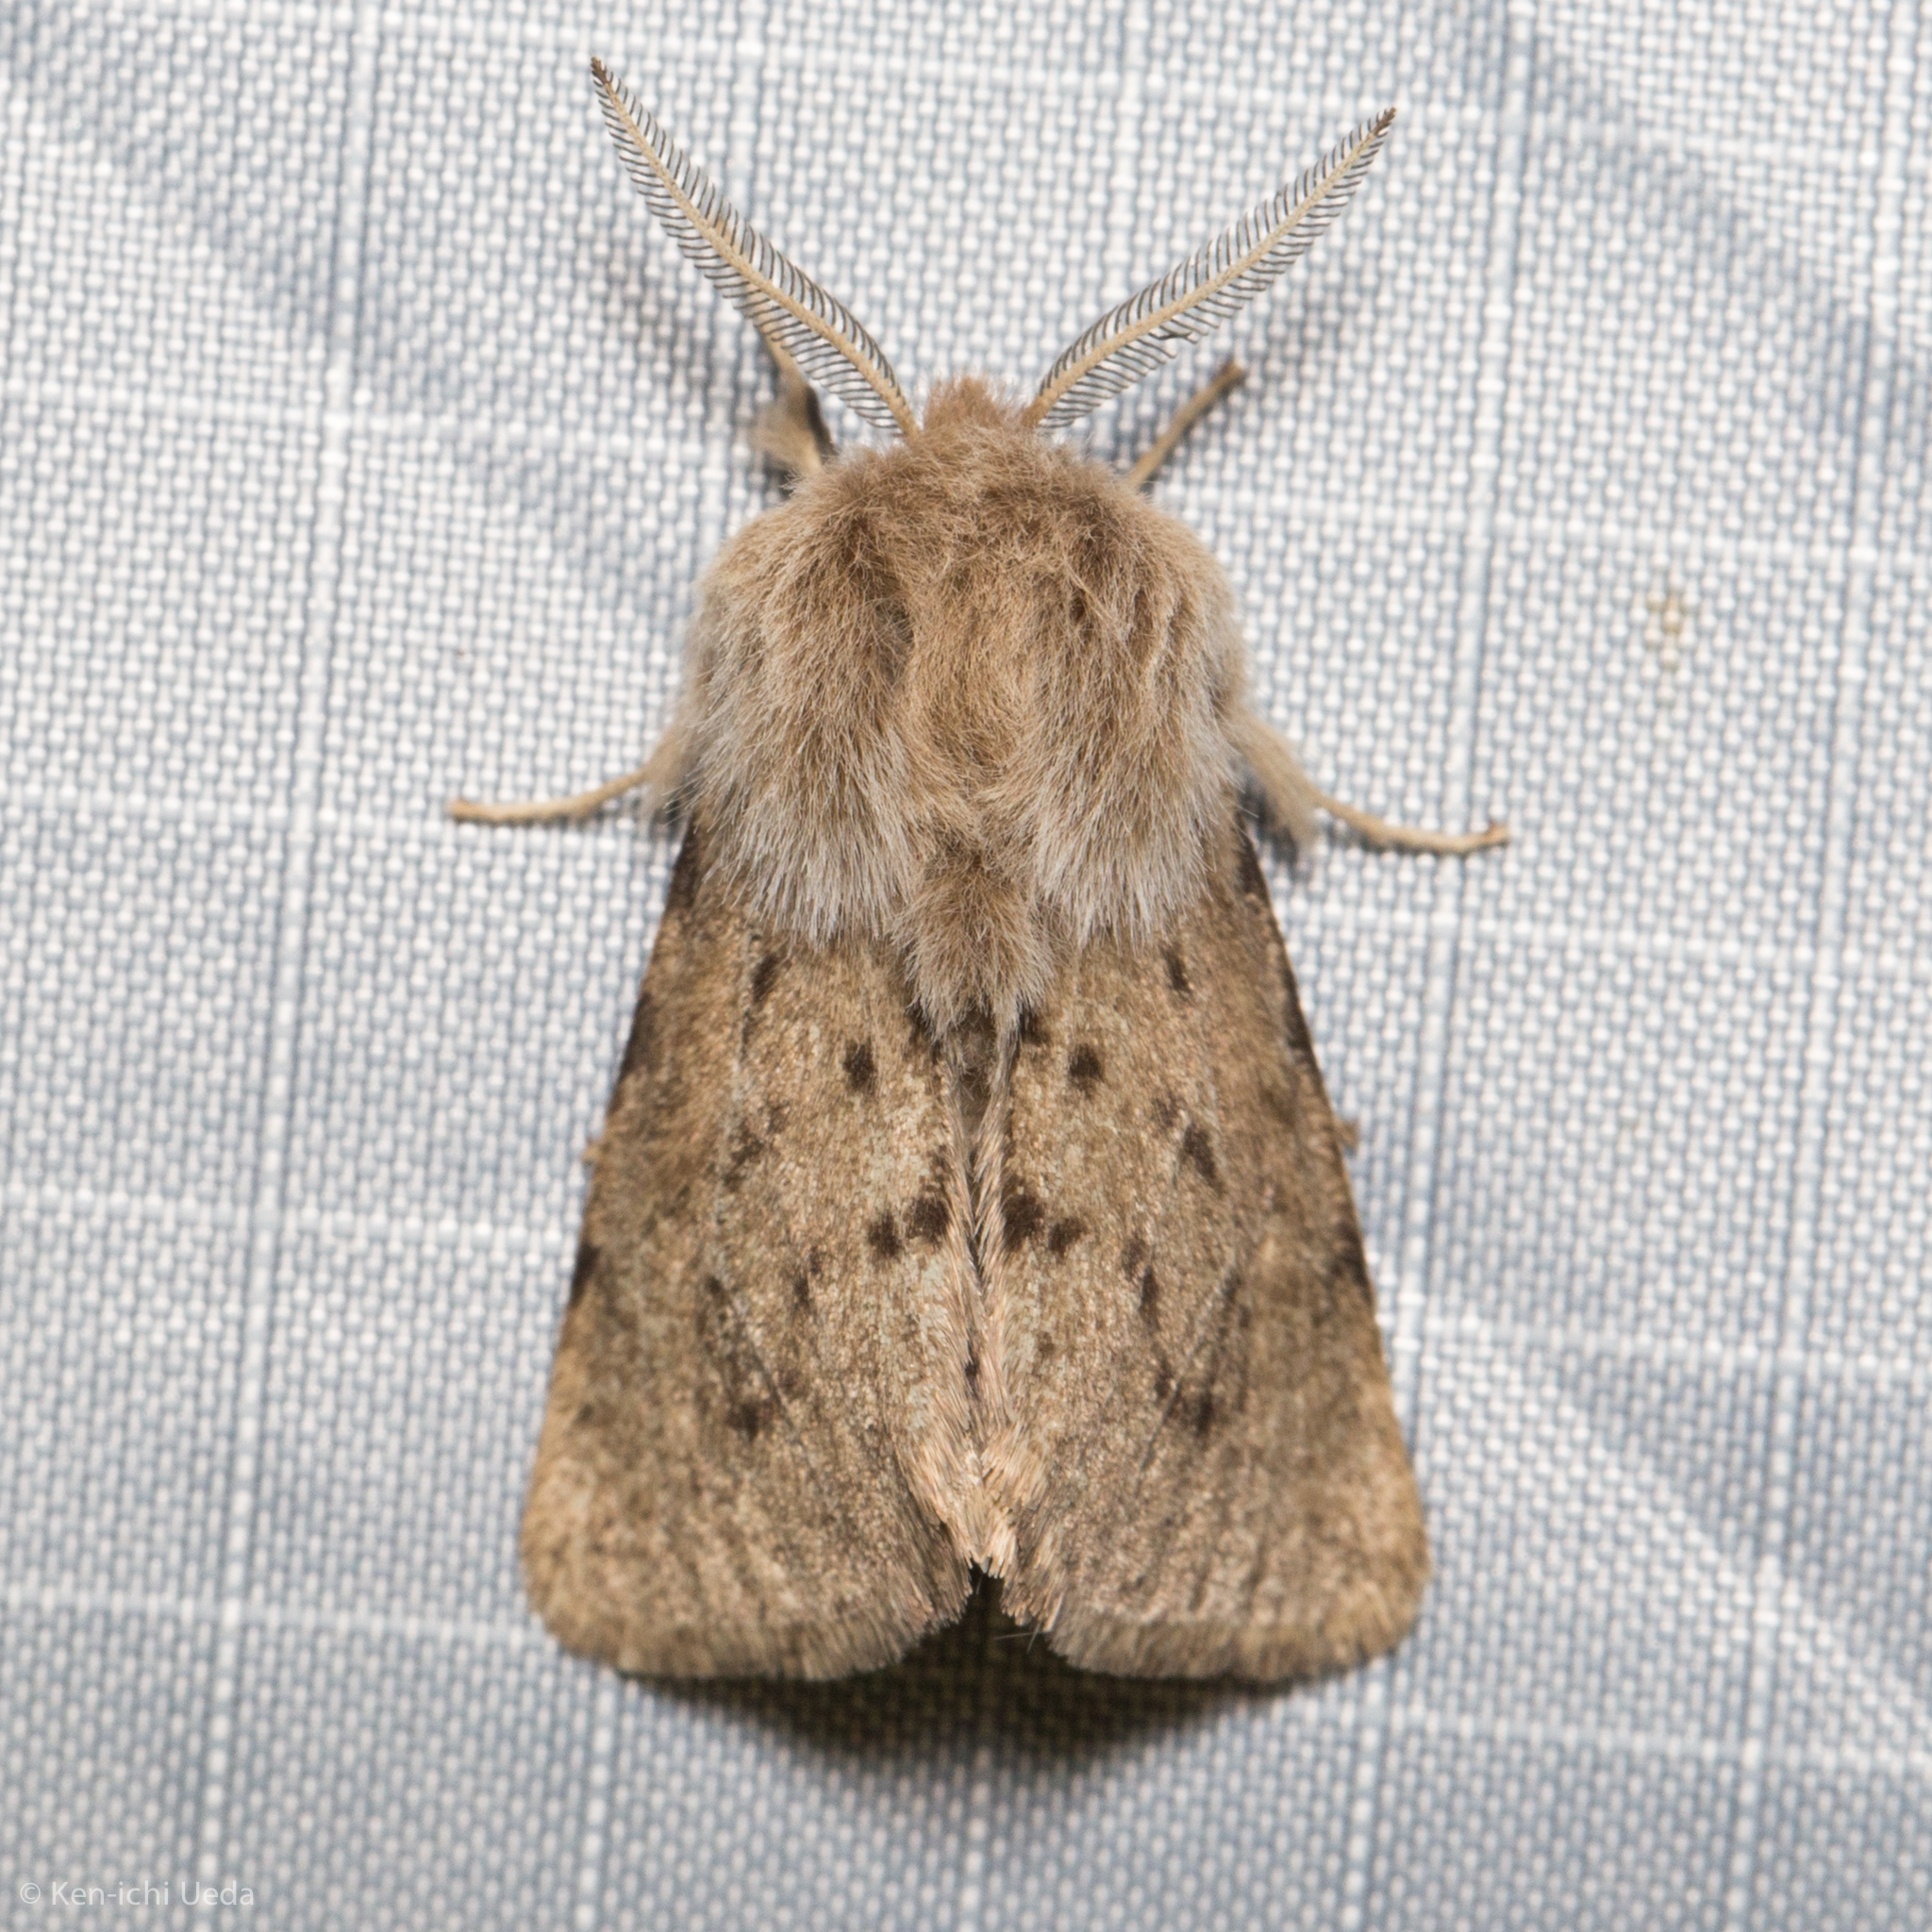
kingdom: Animalia
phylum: Arthropoda
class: Insecta
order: Lepidoptera
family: Erebidae
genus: Spilosoma
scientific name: Spilosoma vagans
